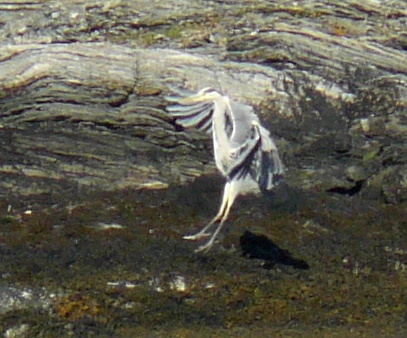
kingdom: Animalia
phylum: Chordata
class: Aves
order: Pelecaniformes
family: Ardeidae
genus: Ardea
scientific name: Ardea cinerea
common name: Grey heron
